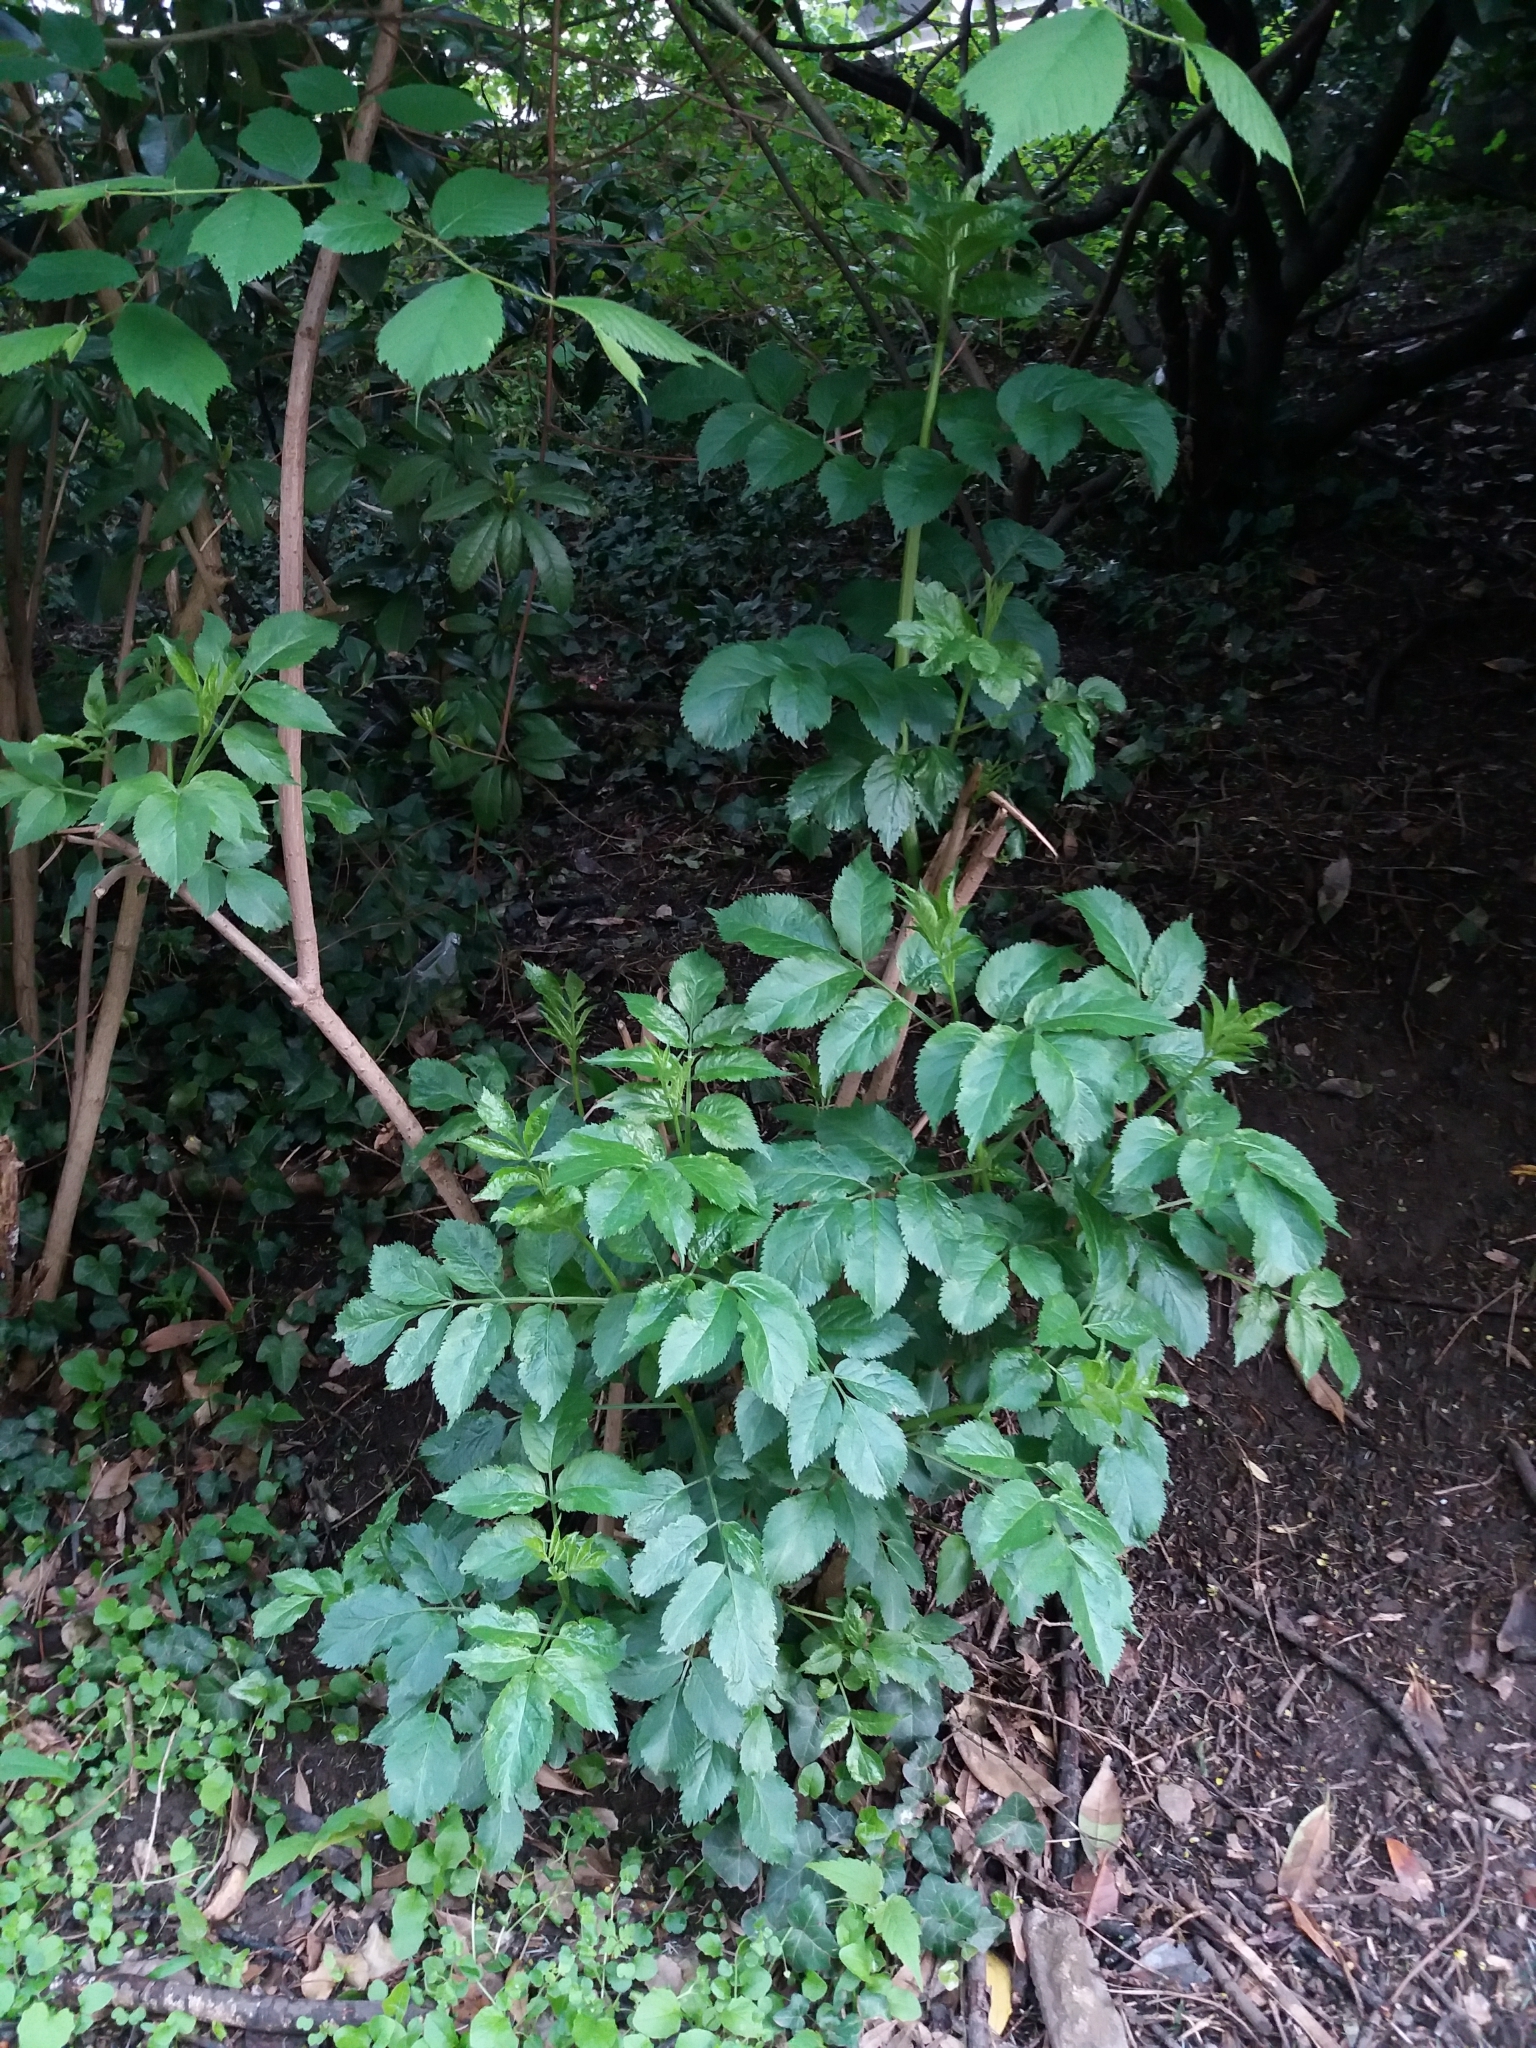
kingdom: Plantae
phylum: Tracheophyta
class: Magnoliopsida
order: Dipsacales
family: Viburnaceae
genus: Sambucus
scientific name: Sambucus nigra
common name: Elder
